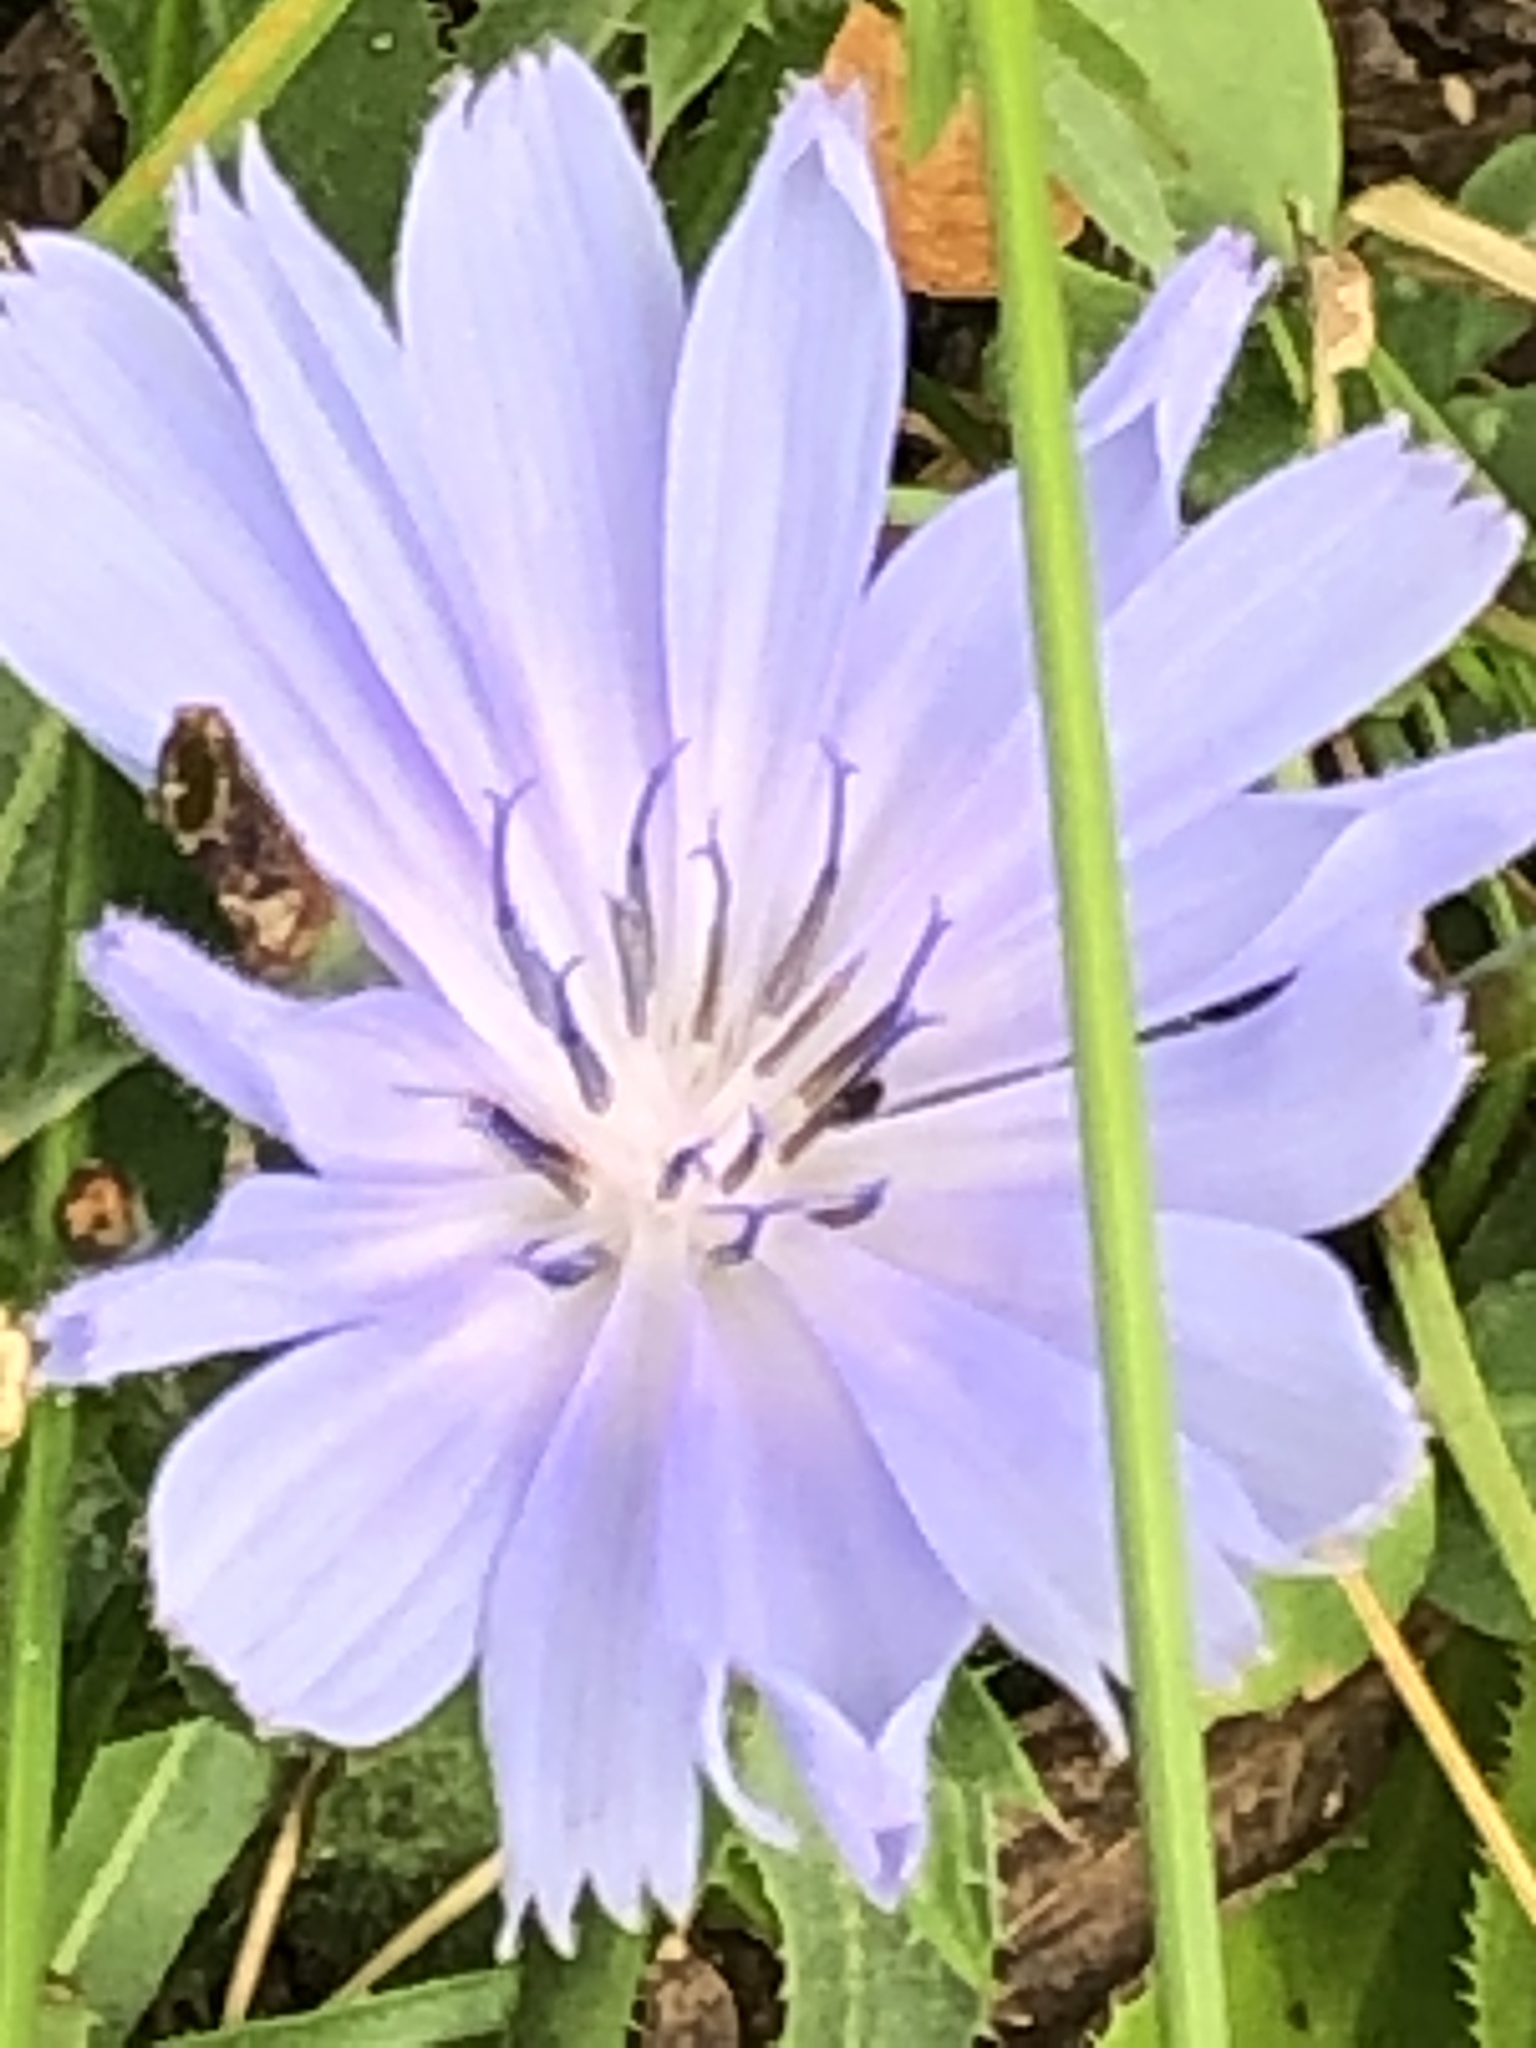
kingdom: Plantae
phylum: Tracheophyta
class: Magnoliopsida
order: Asterales
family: Asteraceae
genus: Cichorium
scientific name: Cichorium intybus
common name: Chicory
